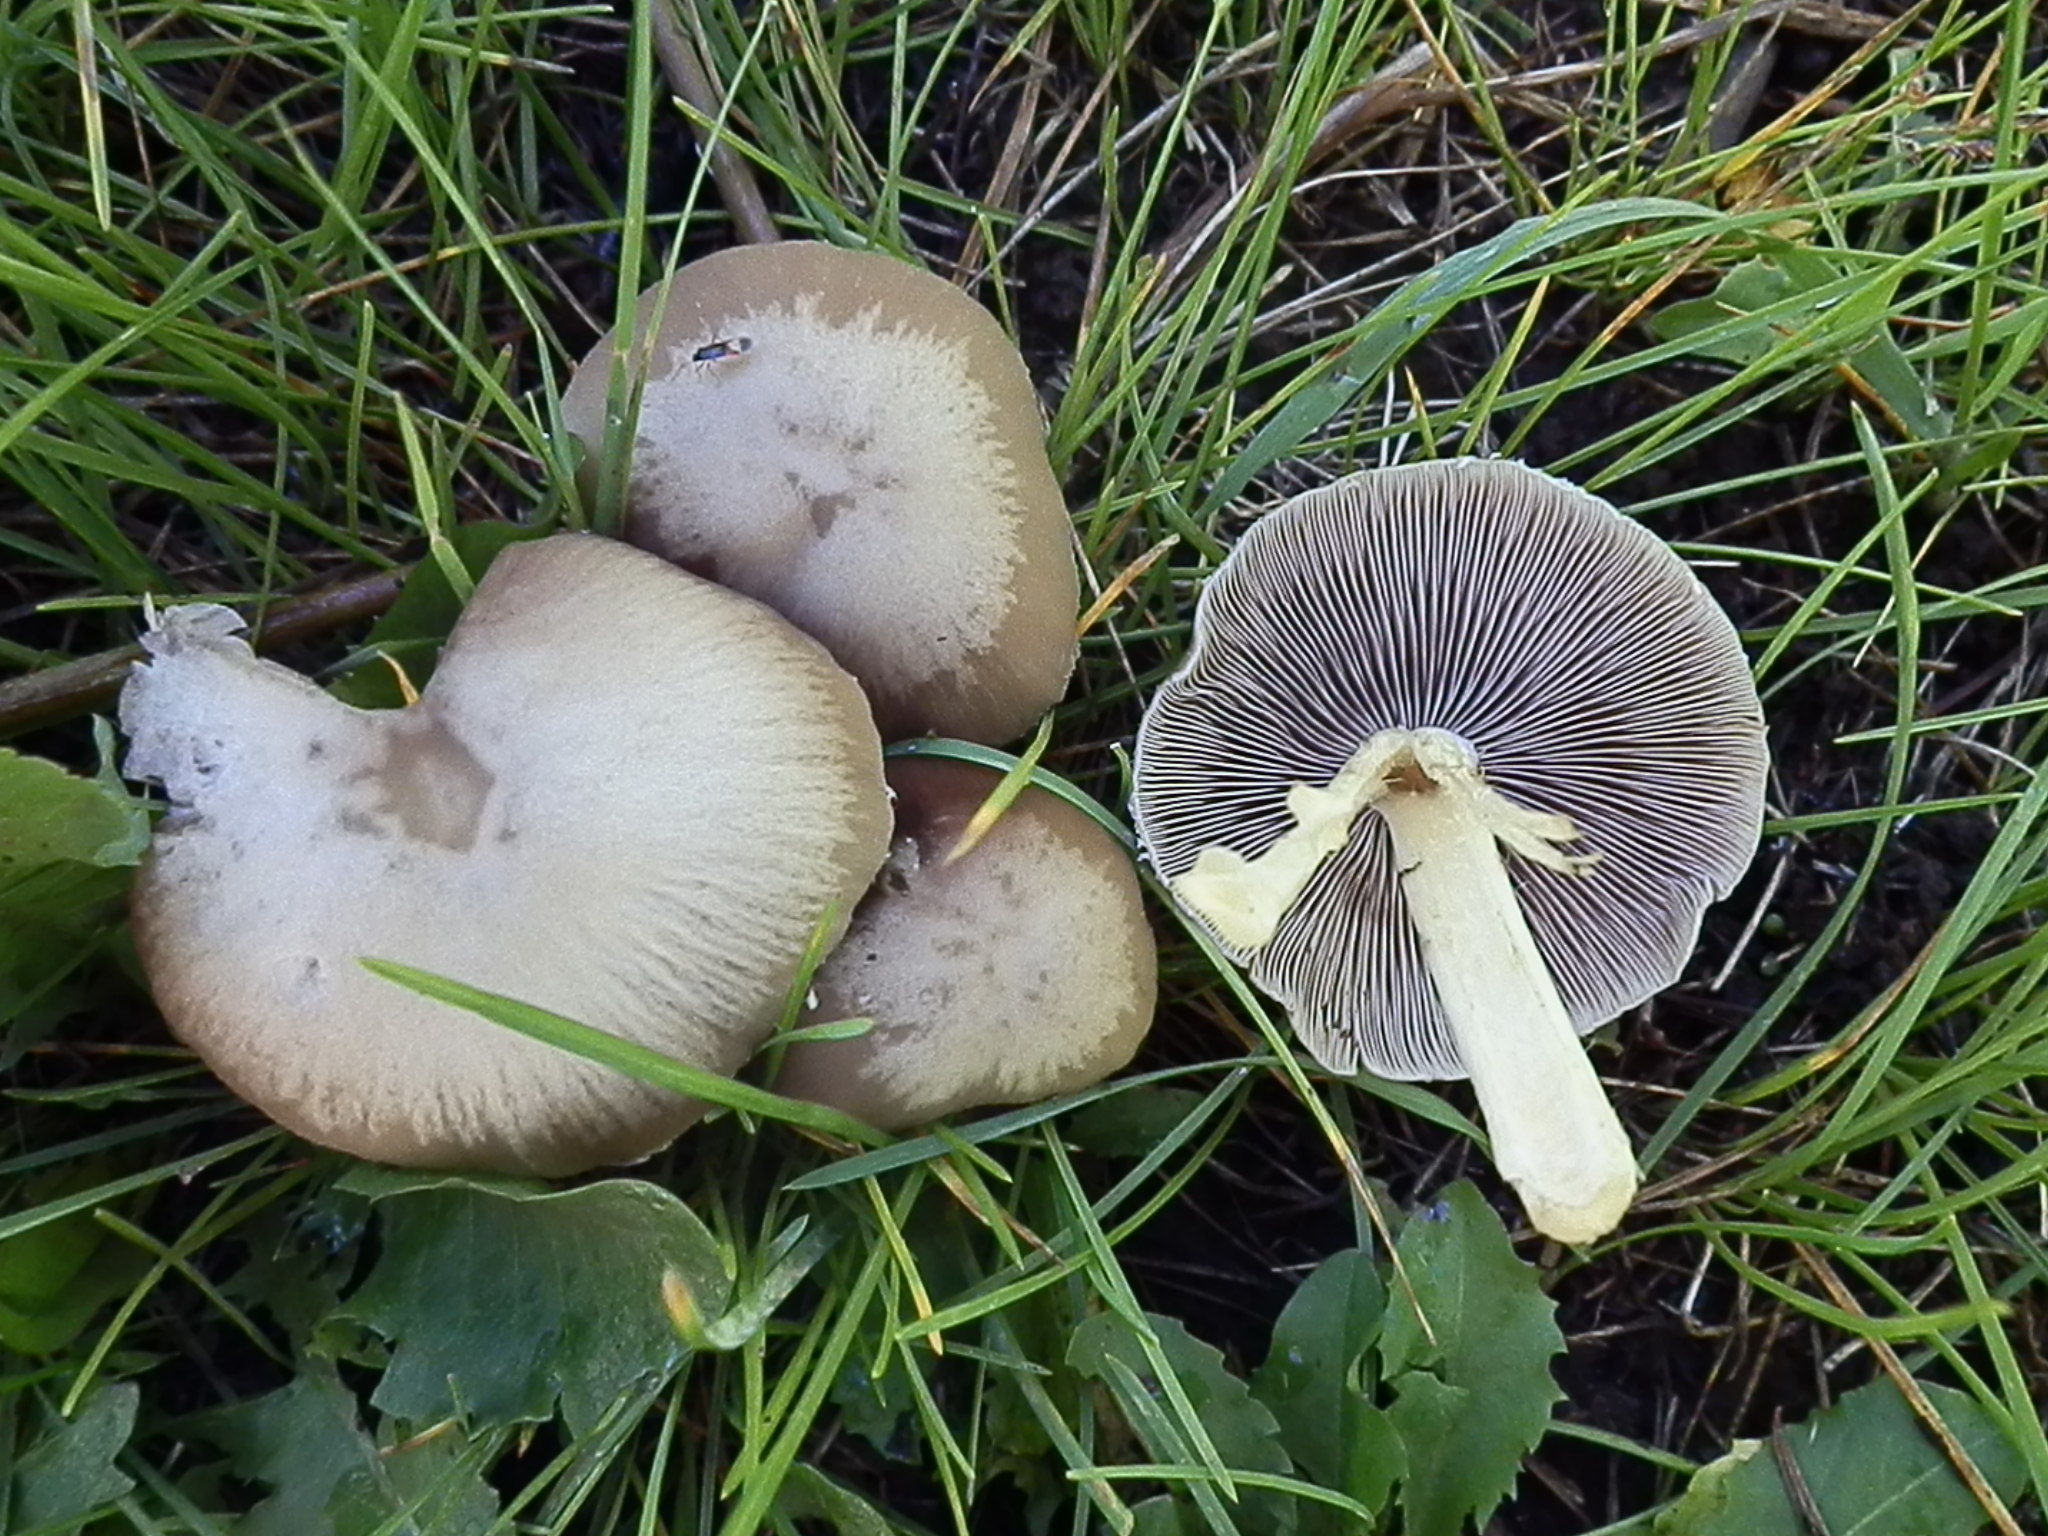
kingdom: Fungi
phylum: Basidiomycota
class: Agaricomycetes
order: Agaricales
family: Psathyrellaceae
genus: Candolleomyces
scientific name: Candolleomyces candolleanus
